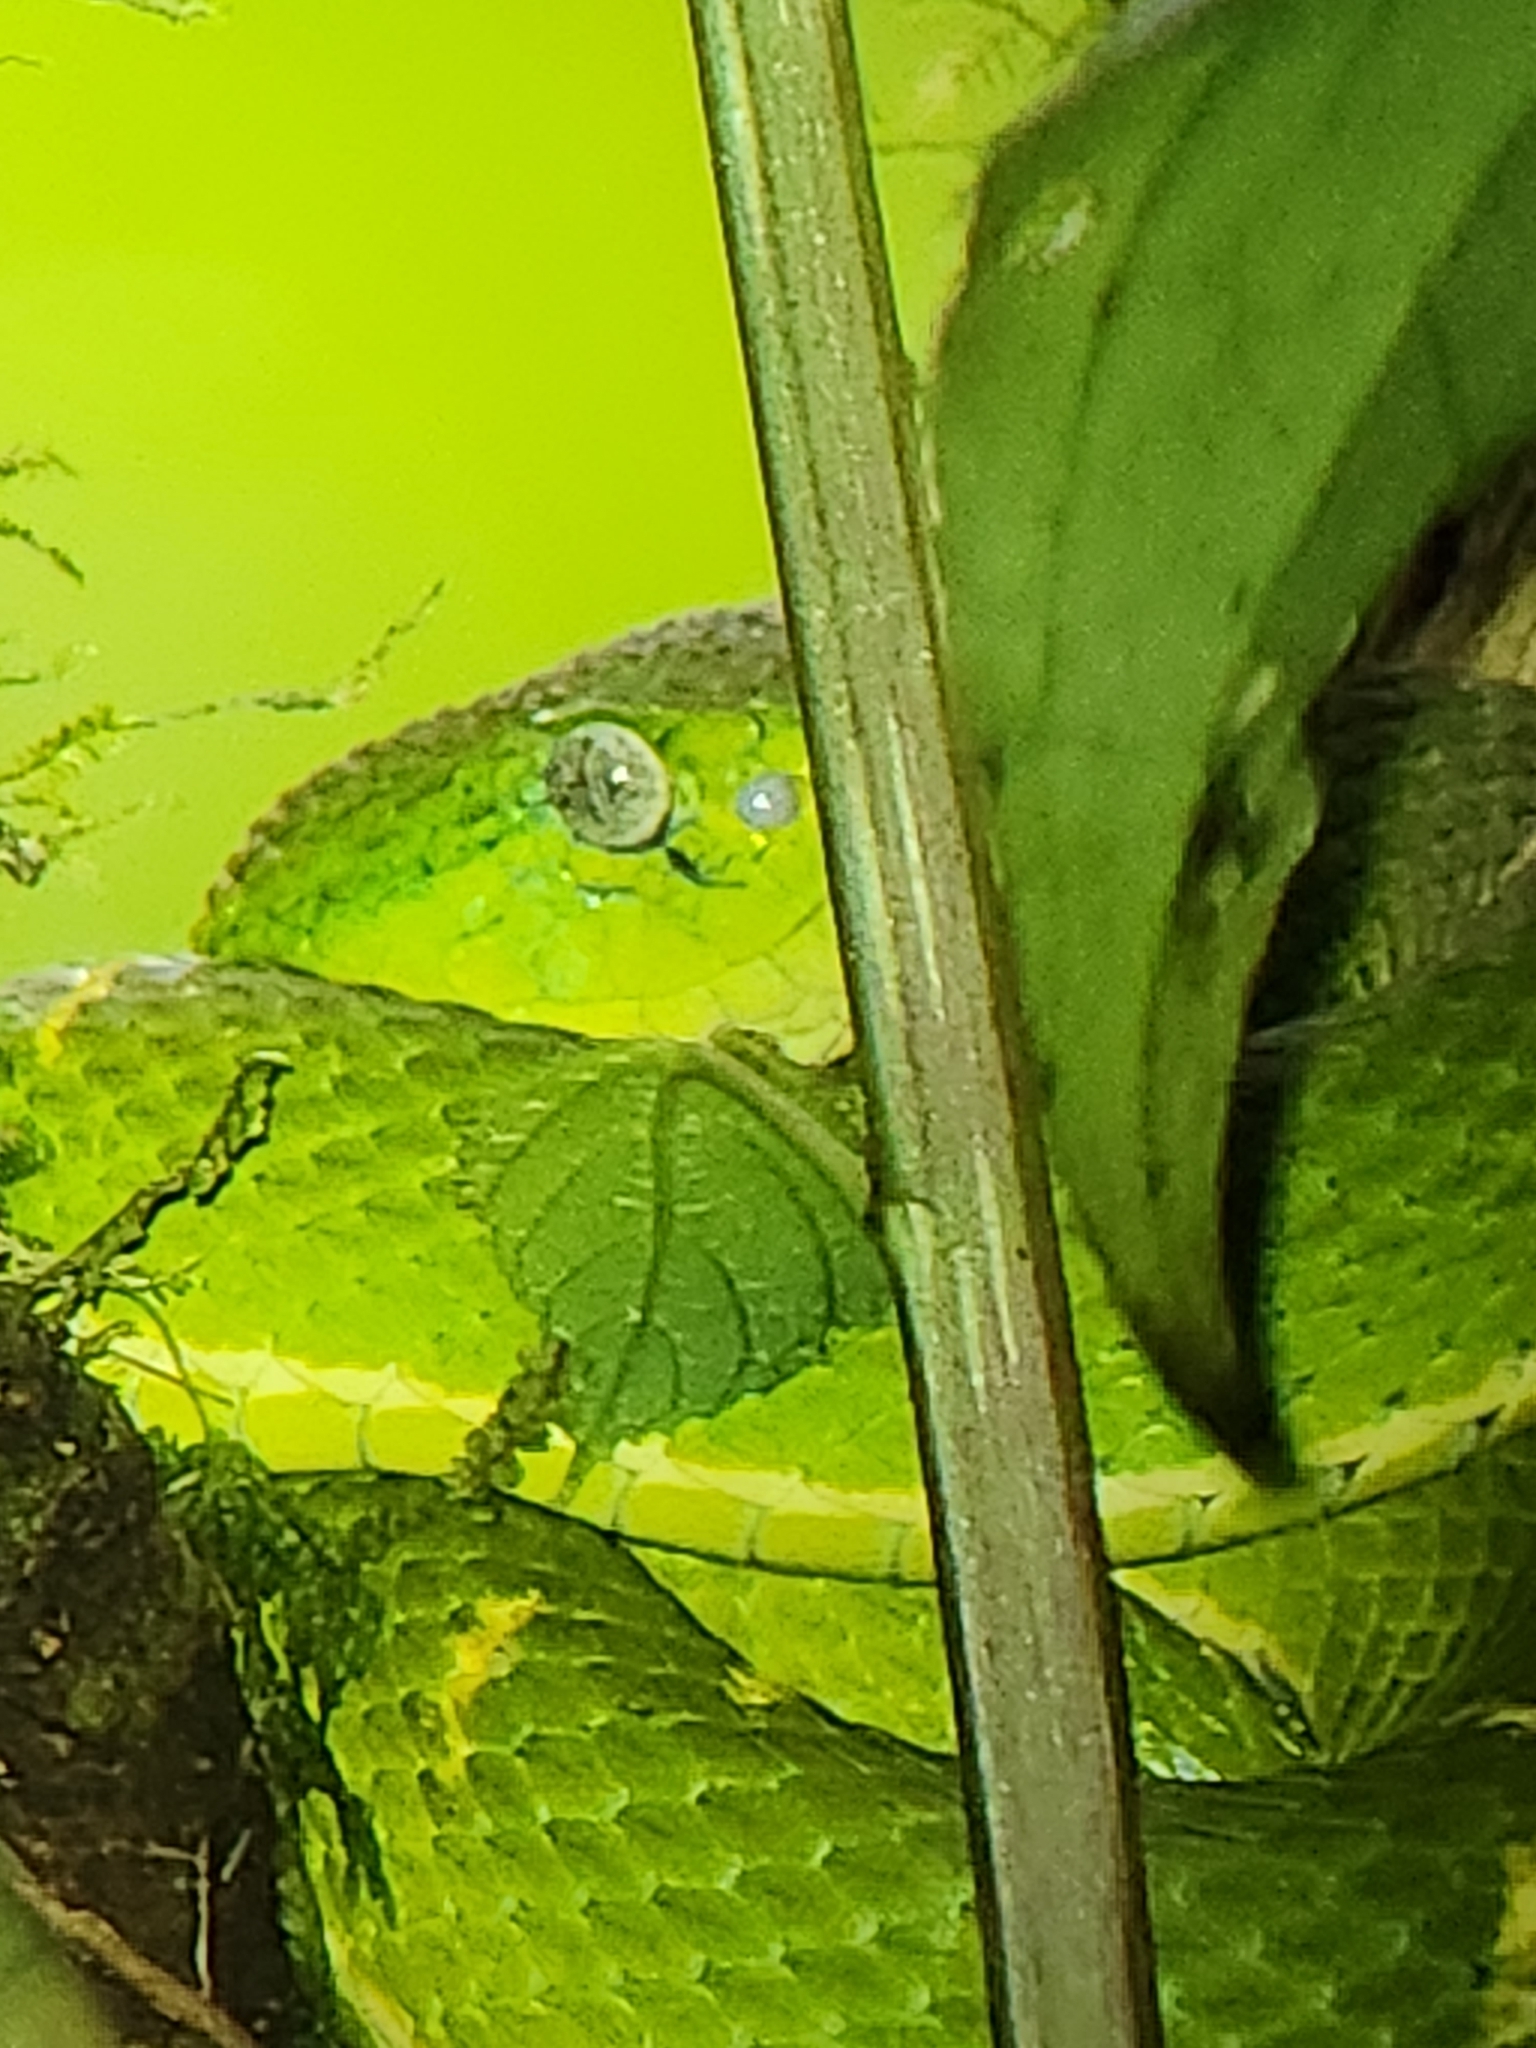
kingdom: Animalia
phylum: Chordata
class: Squamata
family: Viperidae
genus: Bothriechis
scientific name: Bothriechis lateralis
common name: Coffee palm viper
